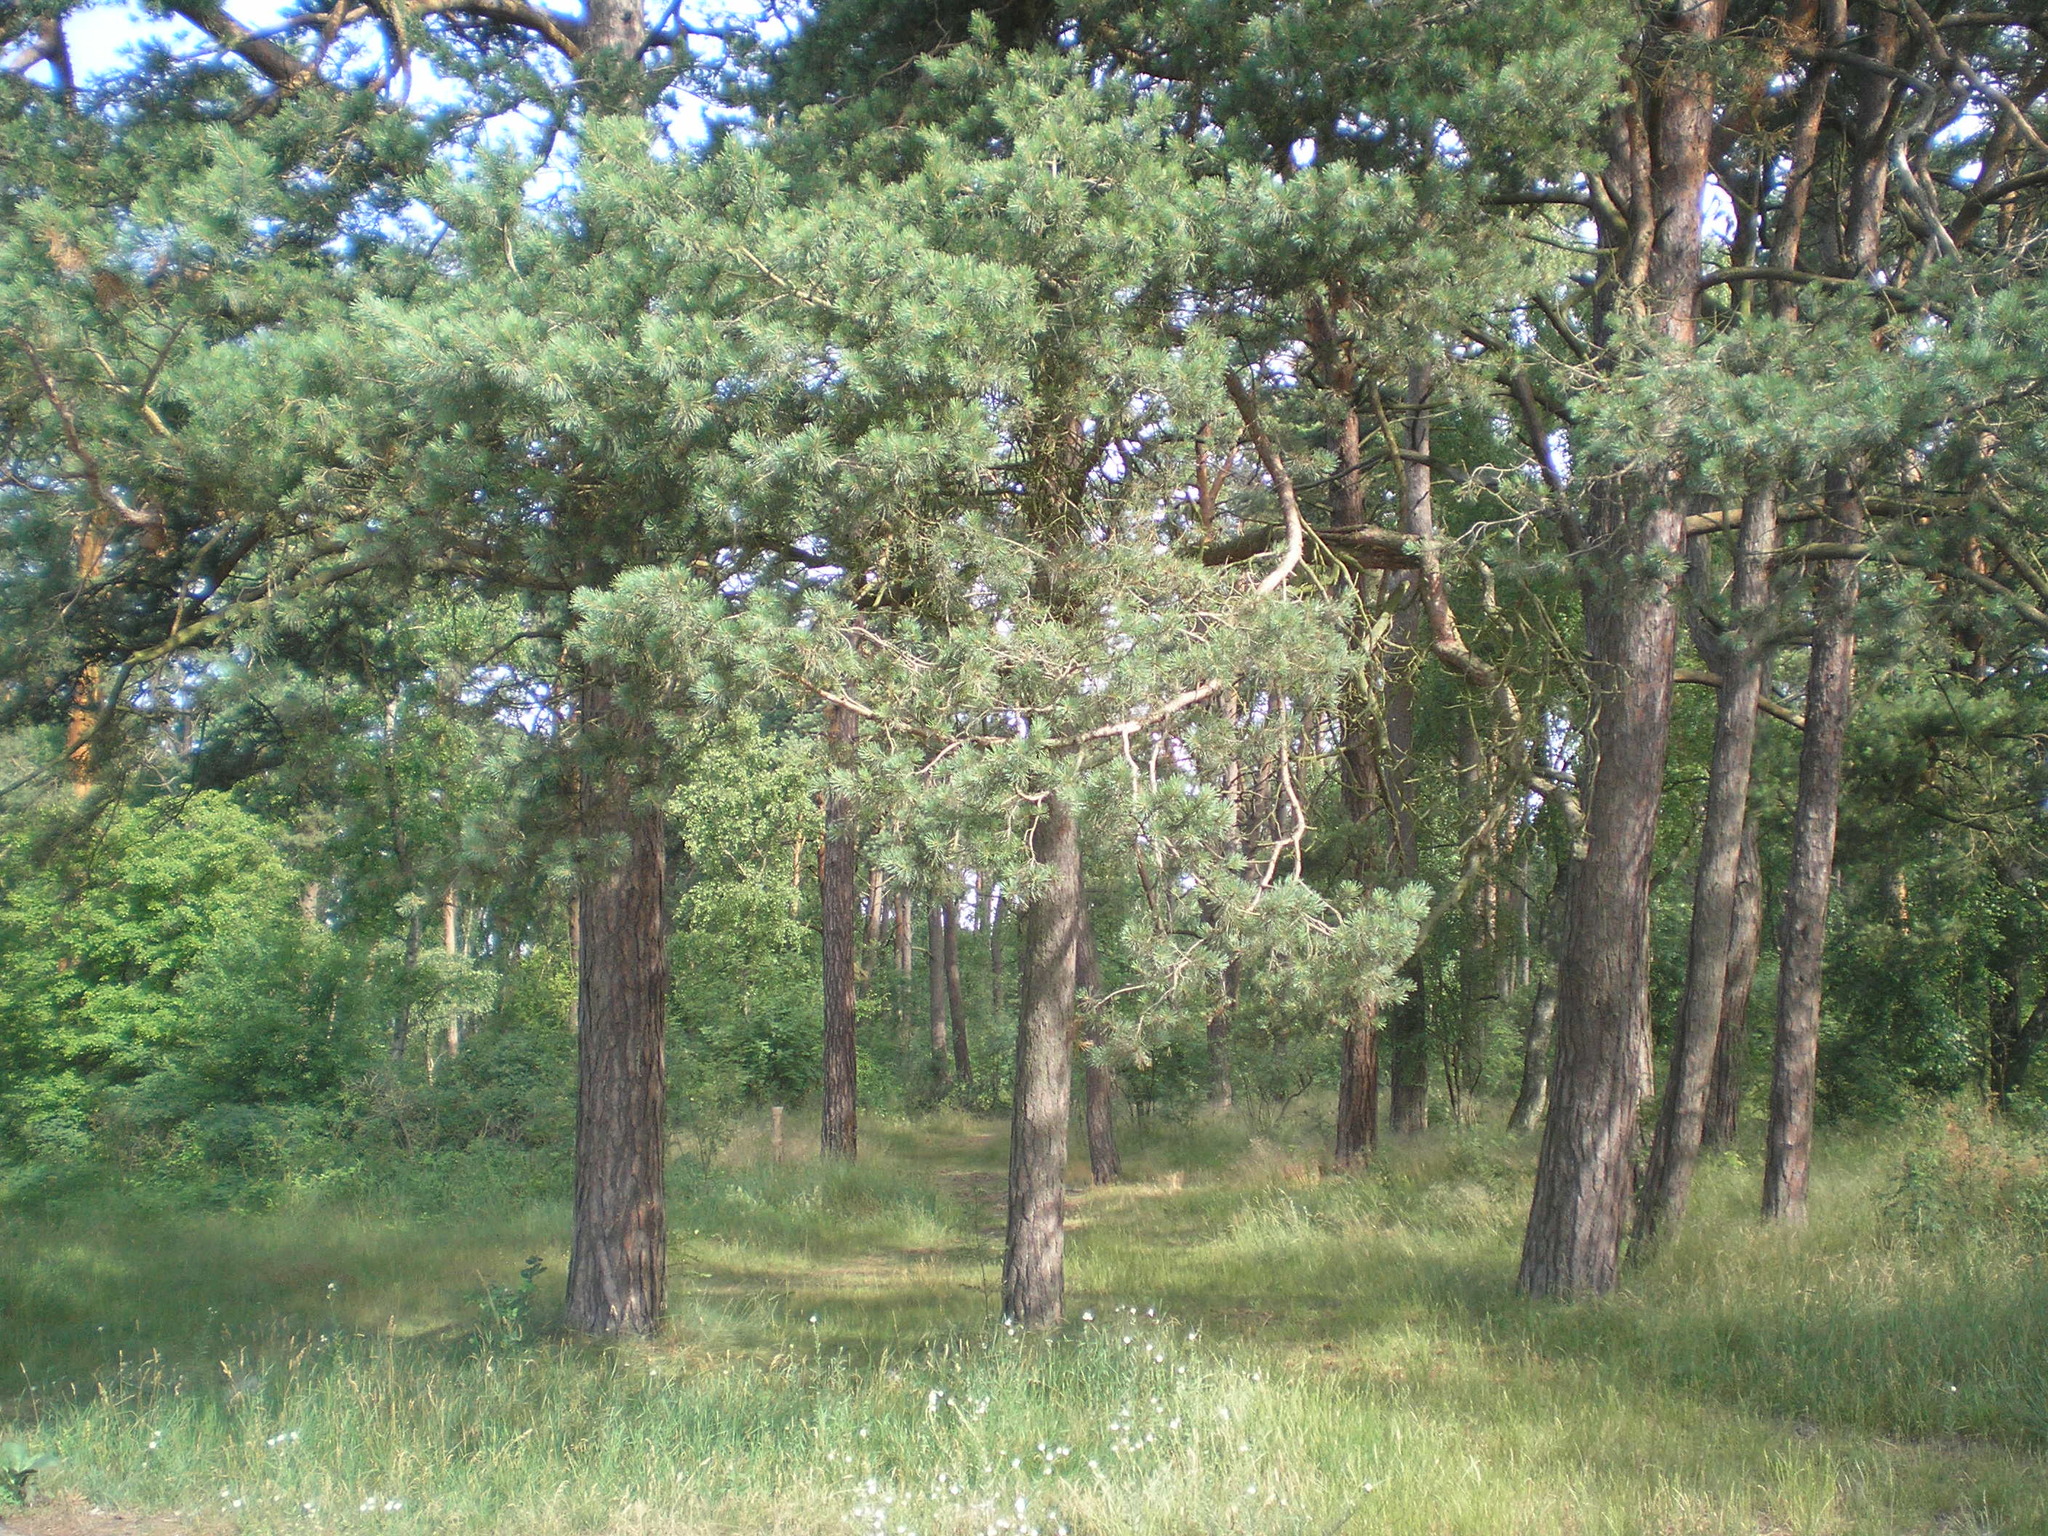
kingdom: Plantae
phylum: Tracheophyta
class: Pinopsida
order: Pinales
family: Pinaceae
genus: Pinus
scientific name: Pinus sylvestris
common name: Scots pine
